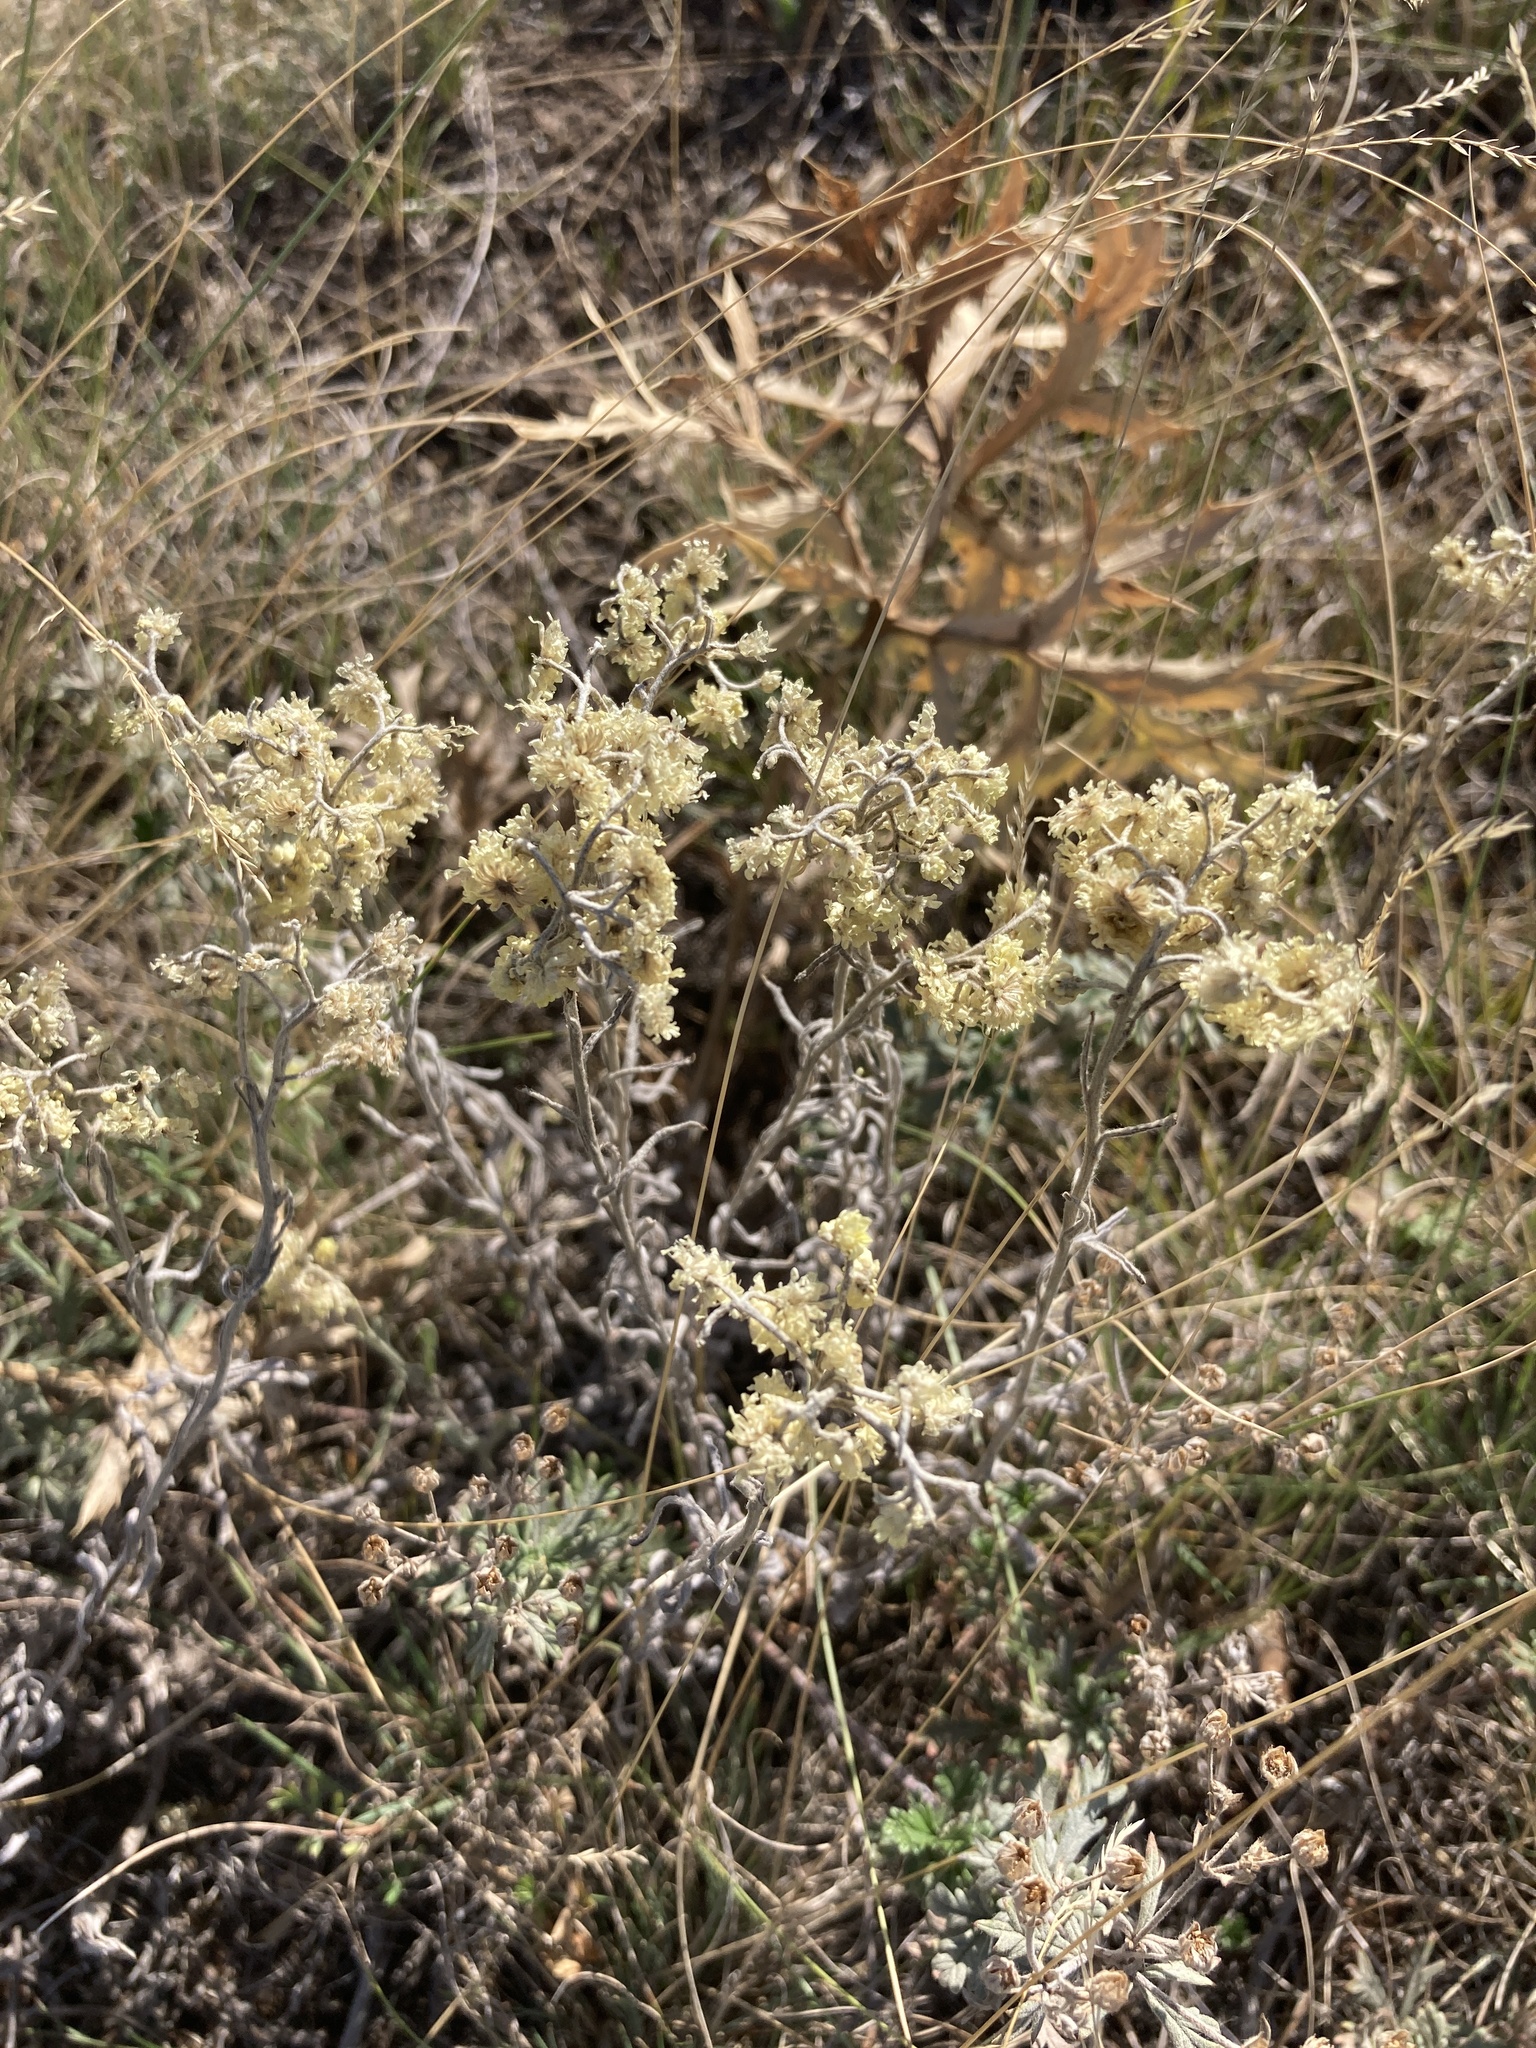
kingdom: Plantae
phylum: Tracheophyta
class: Magnoliopsida
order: Asterales
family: Asteraceae
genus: Helichrysum
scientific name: Helichrysum arenarium
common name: Strawflower
